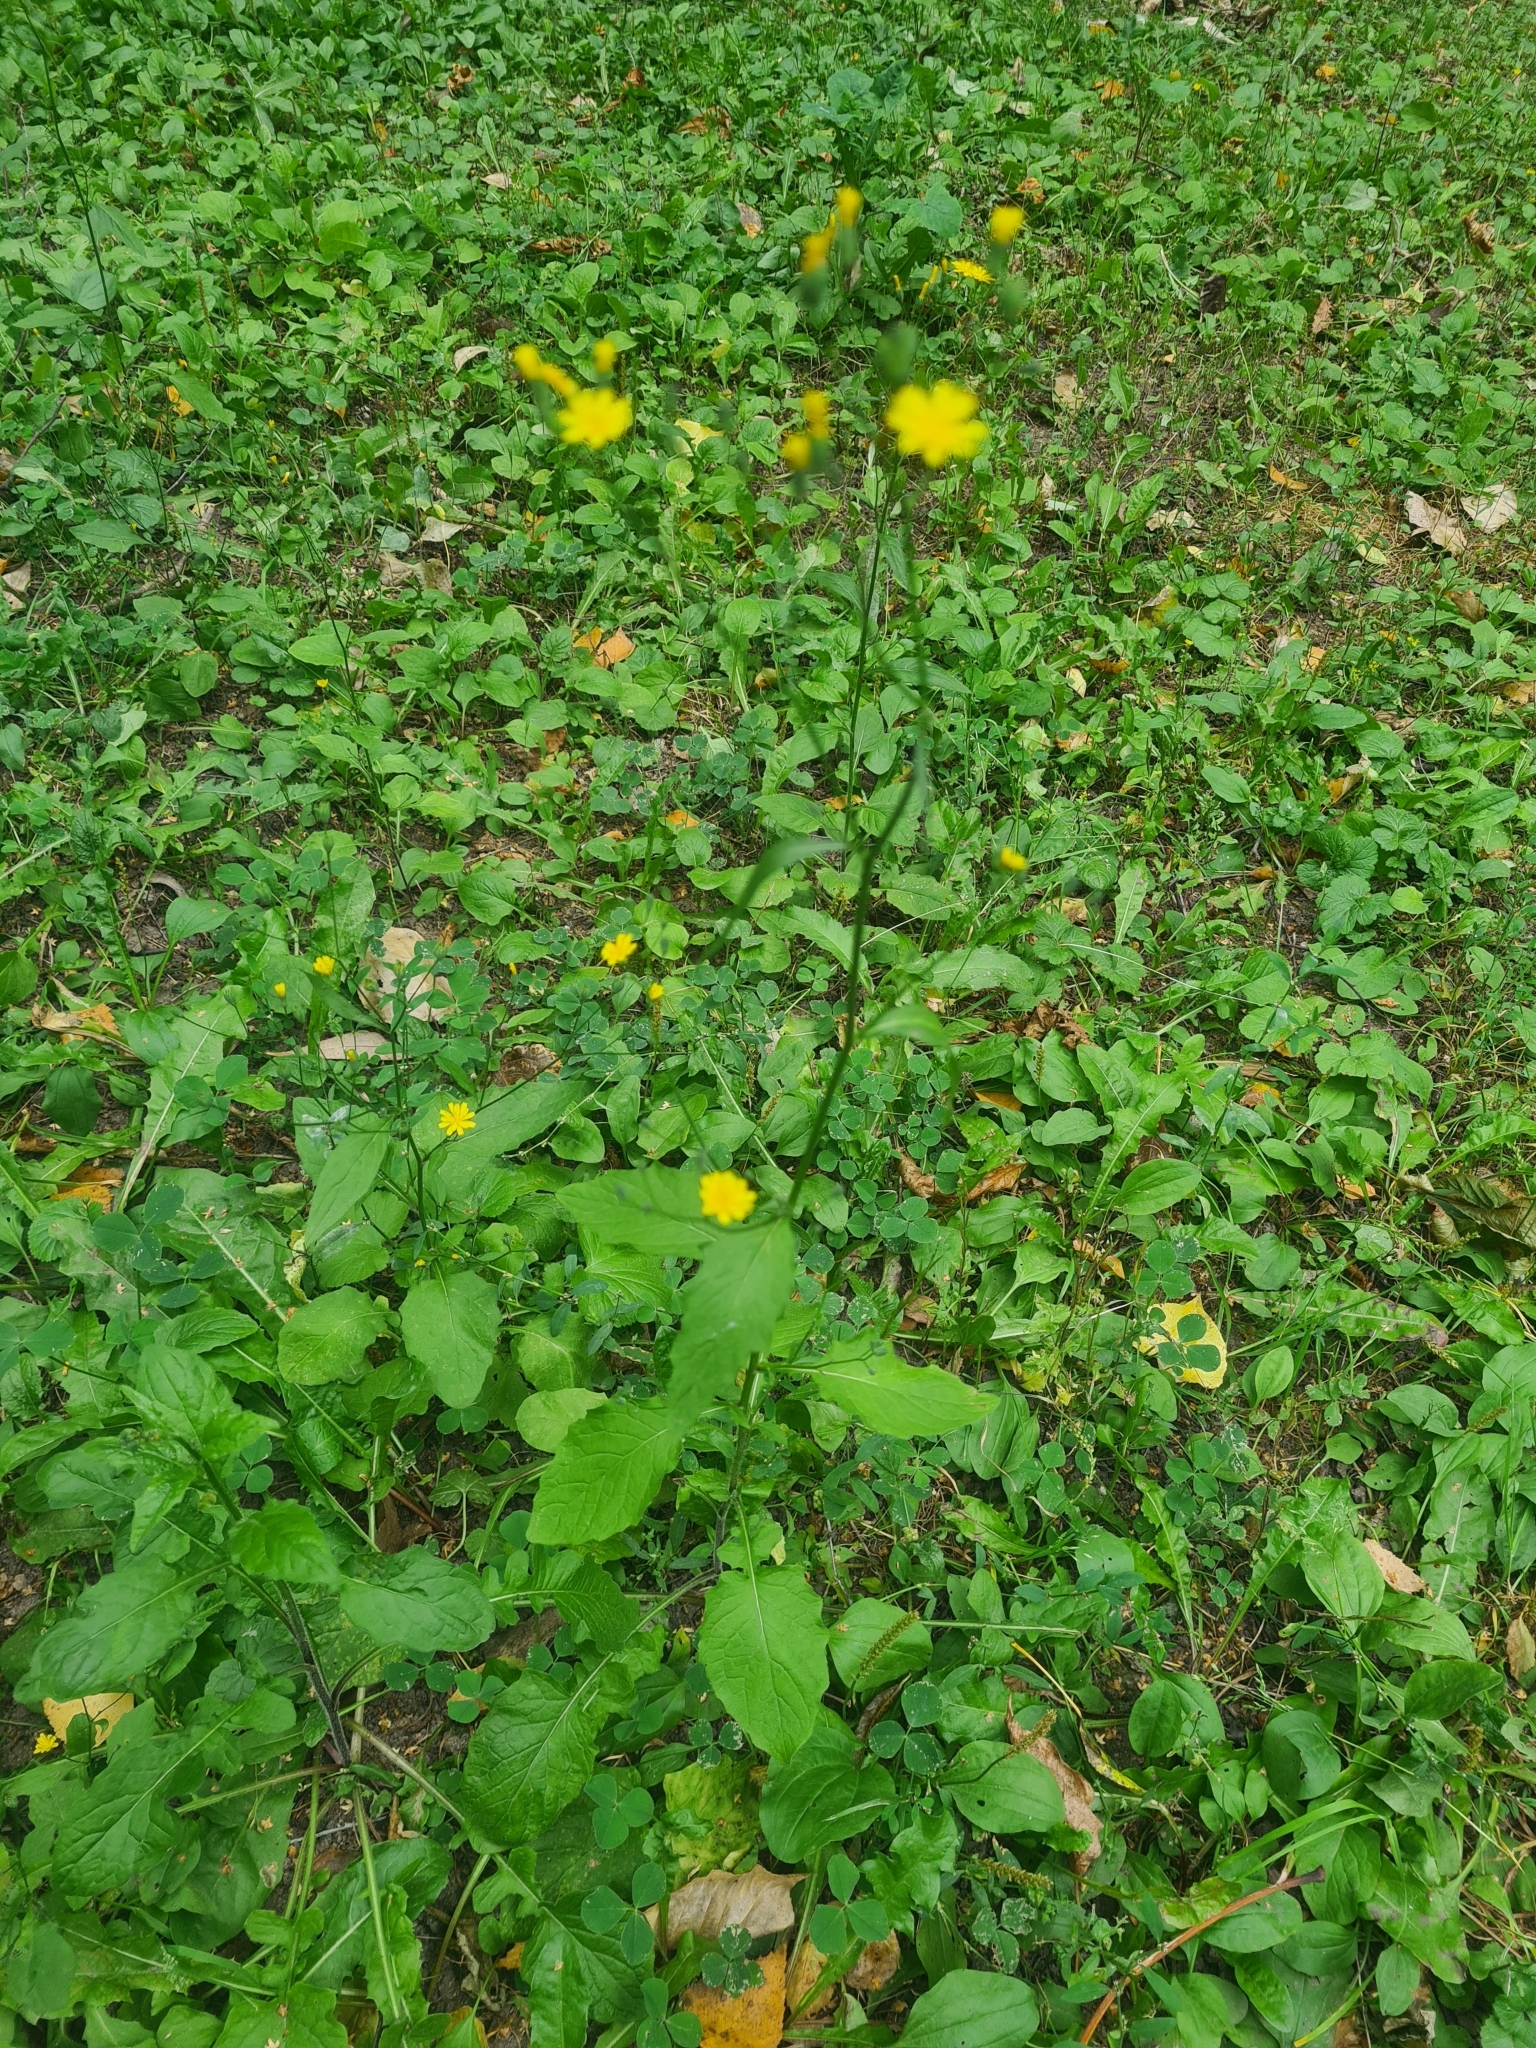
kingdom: Plantae
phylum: Tracheophyta
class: Magnoliopsida
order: Asterales
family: Asteraceae
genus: Lapsana
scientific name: Lapsana communis
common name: Nipplewort
